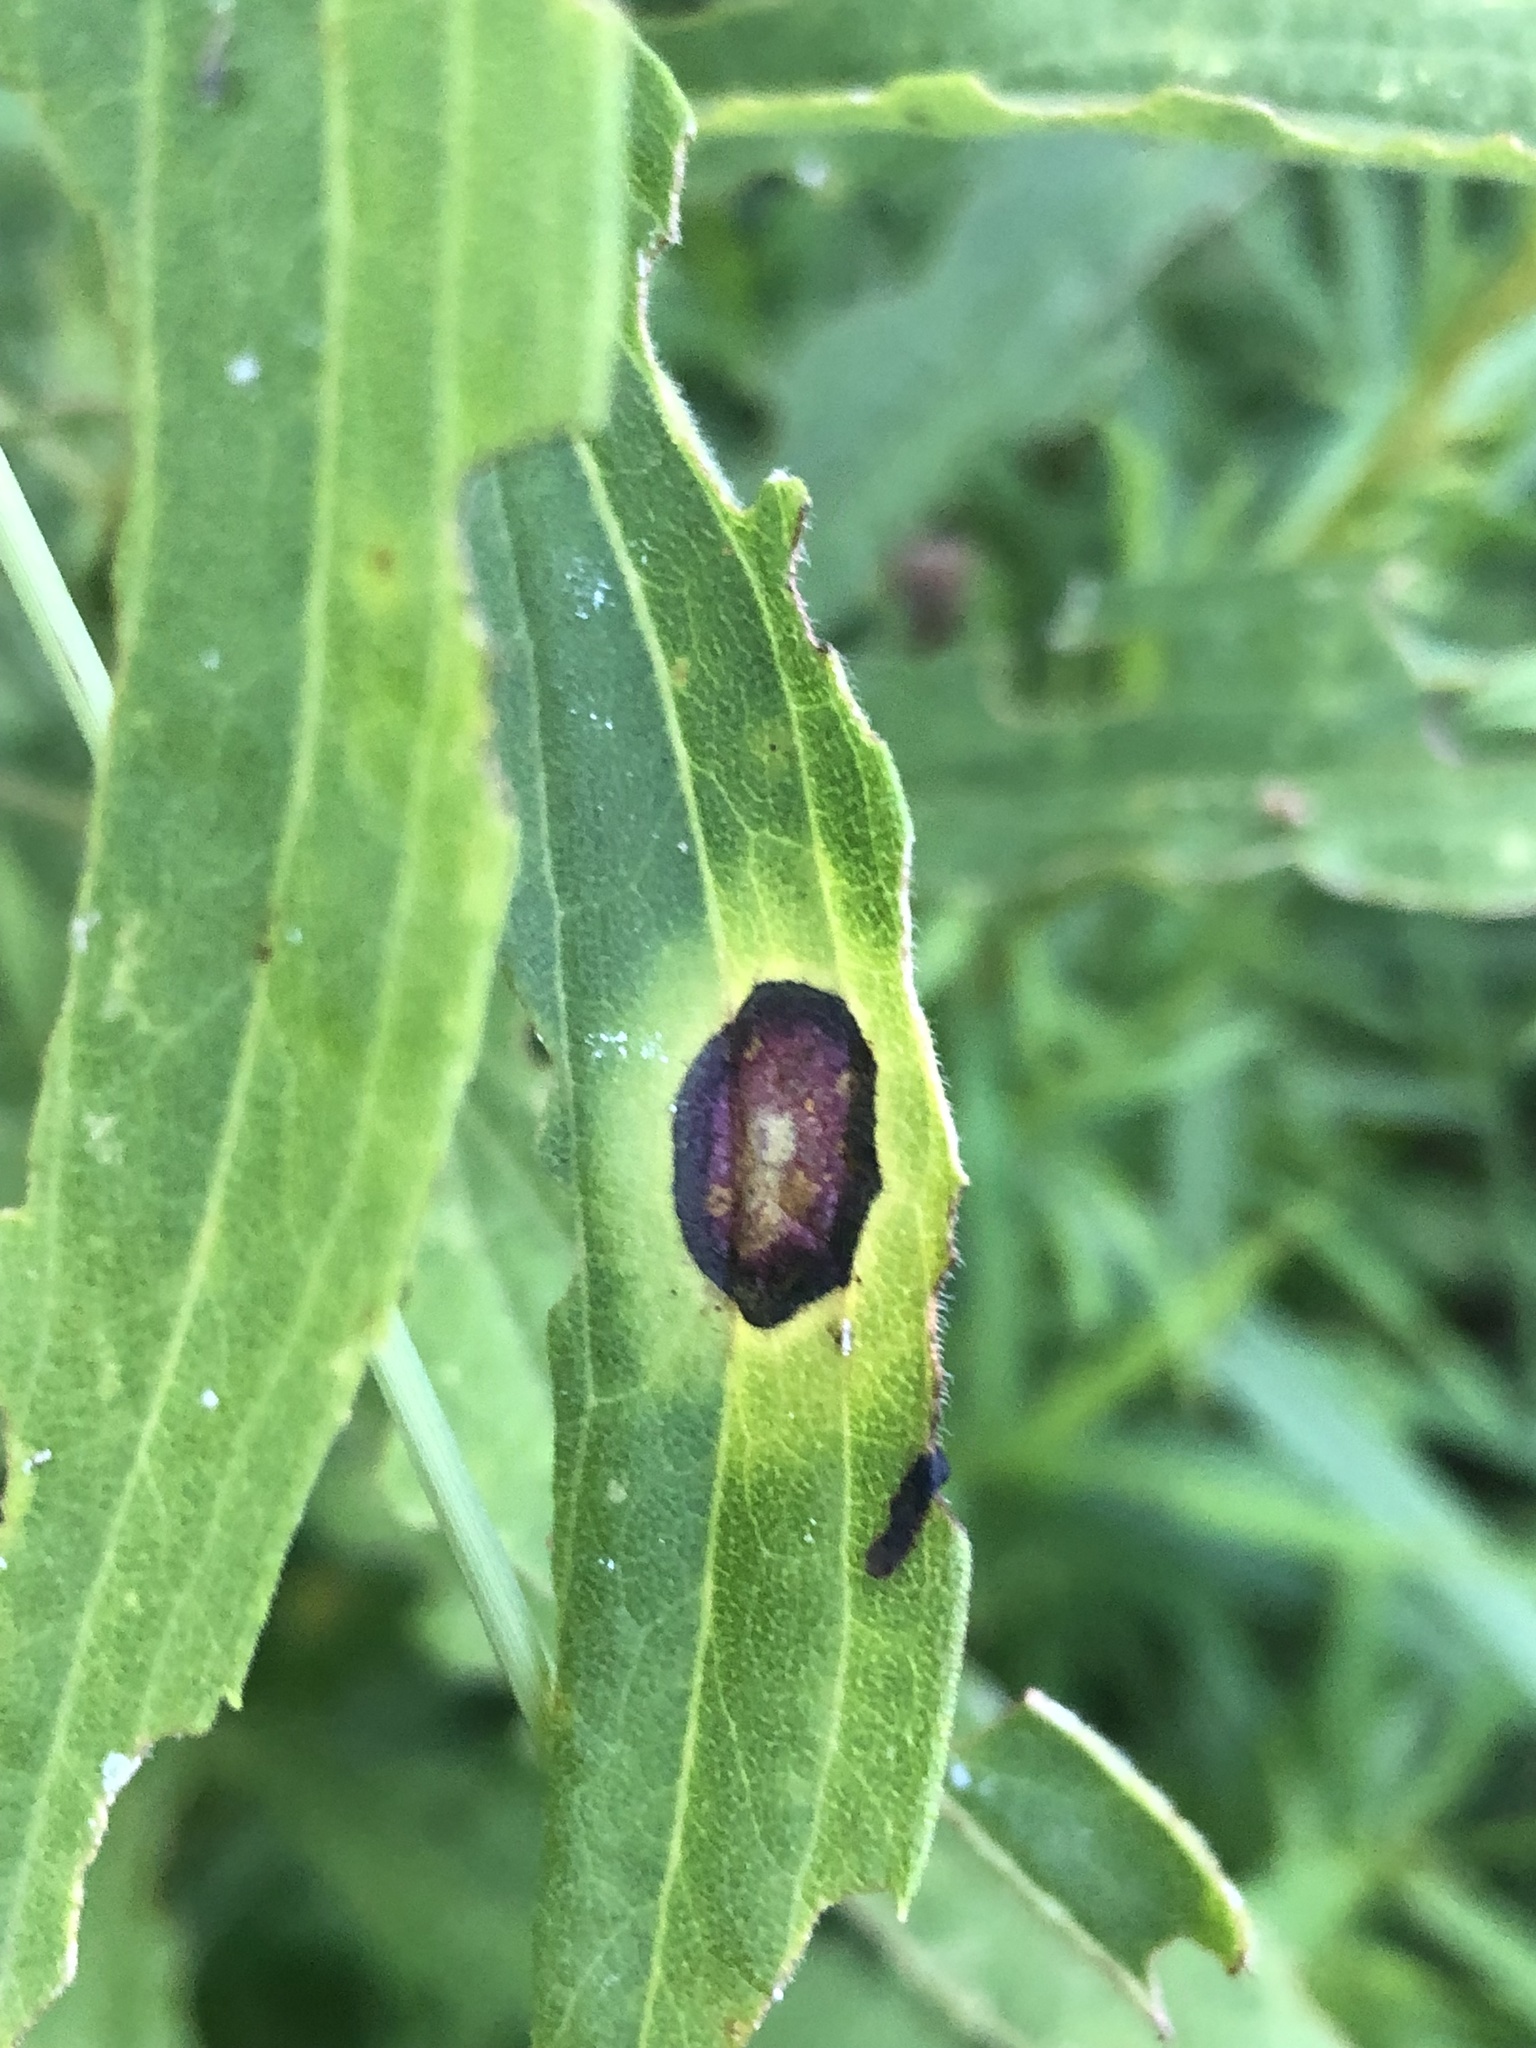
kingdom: Animalia
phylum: Arthropoda
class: Insecta
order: Diptera
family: Cecidomyiidae
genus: Asteromyia
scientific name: Asteromyia carbonifera
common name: Carbonifera goldenrod gall midge
